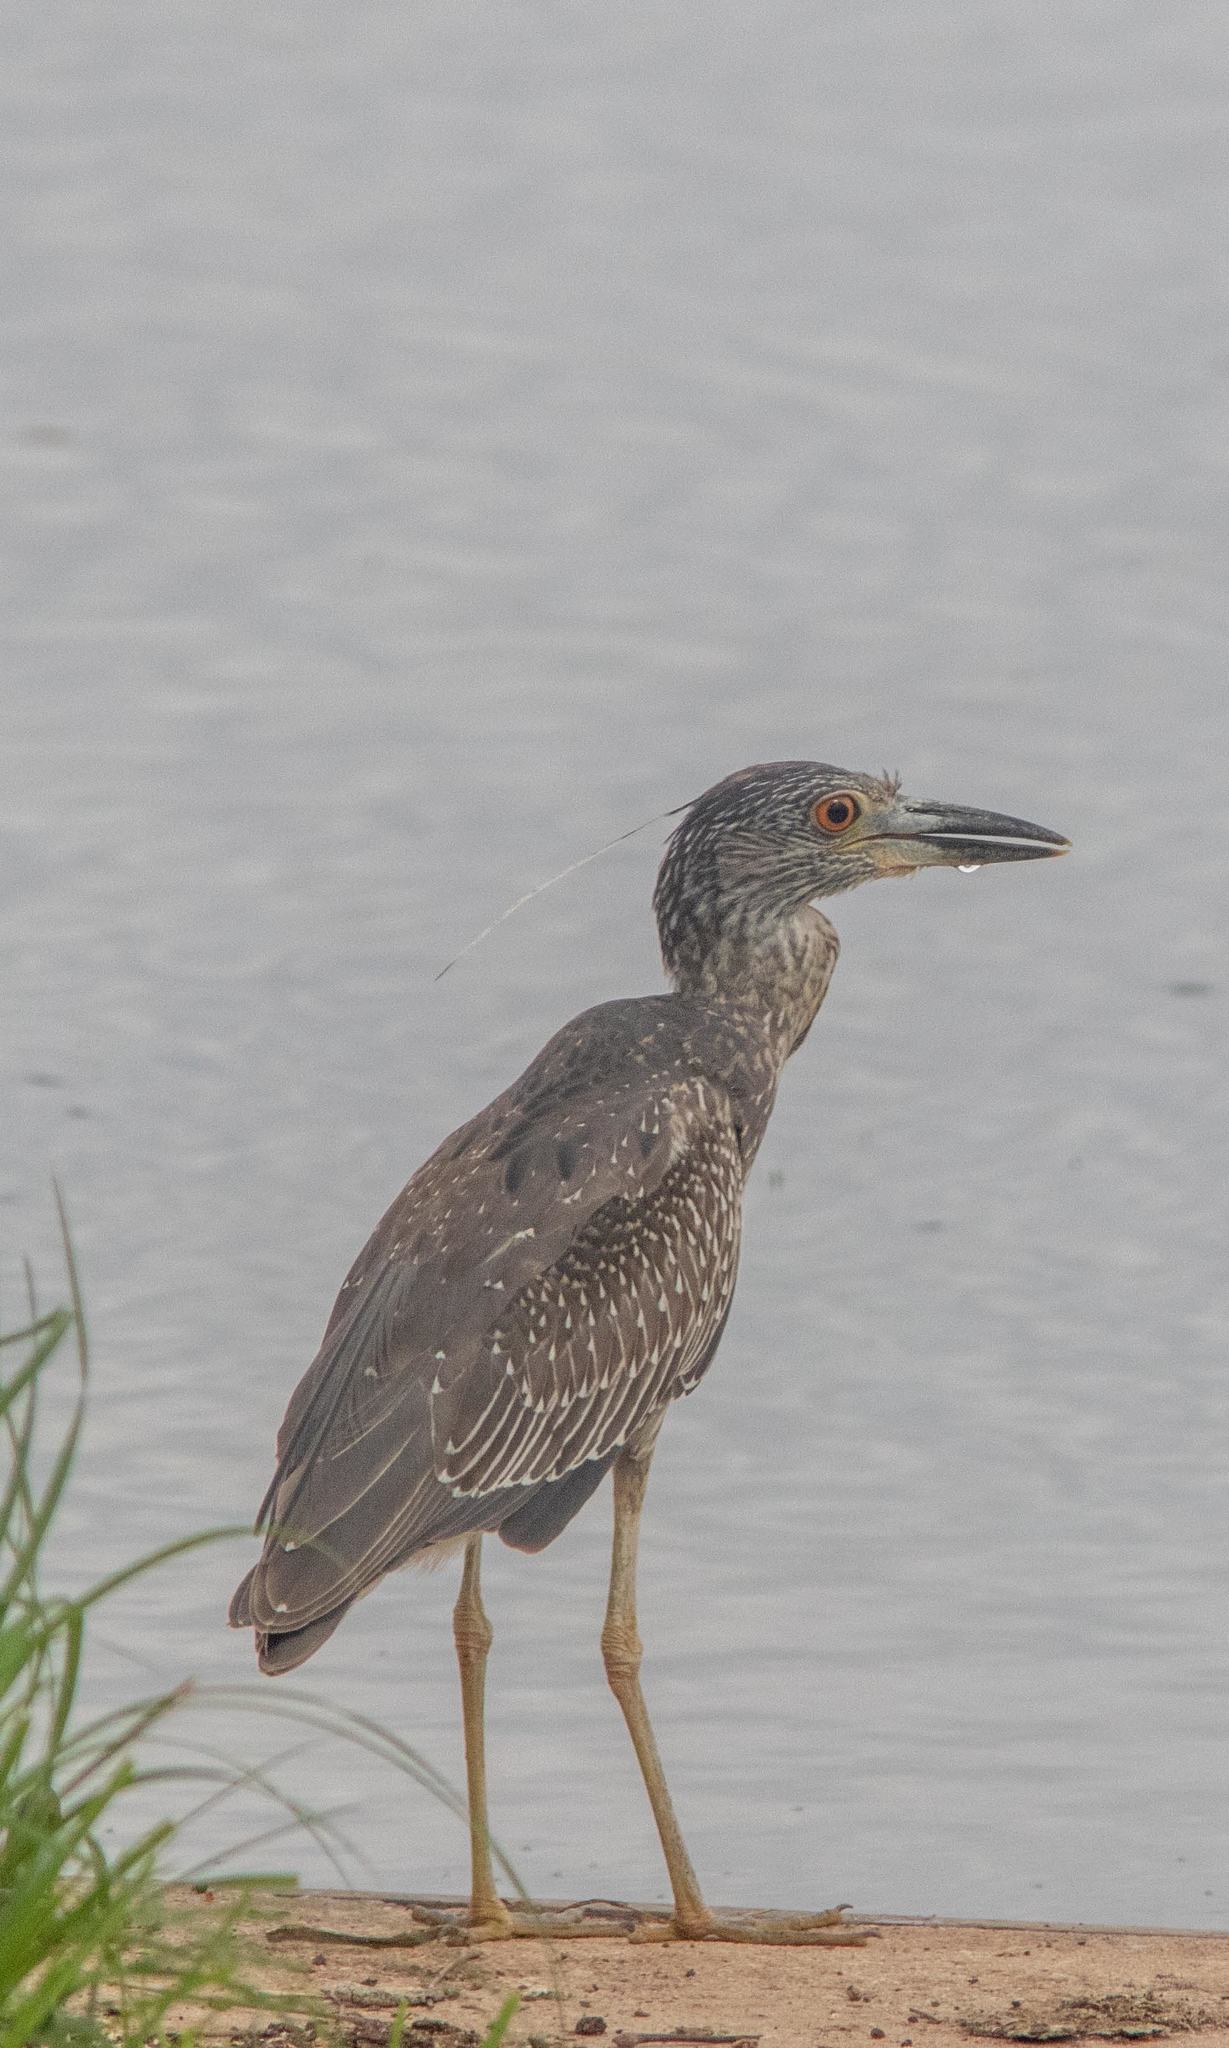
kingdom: Animalia
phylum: Chordata
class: Aves
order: Pelecaniformes
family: Ardeidae
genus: Nyctanassa
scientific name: Nyctanassa violacea
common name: Yellow-crowned night heron
